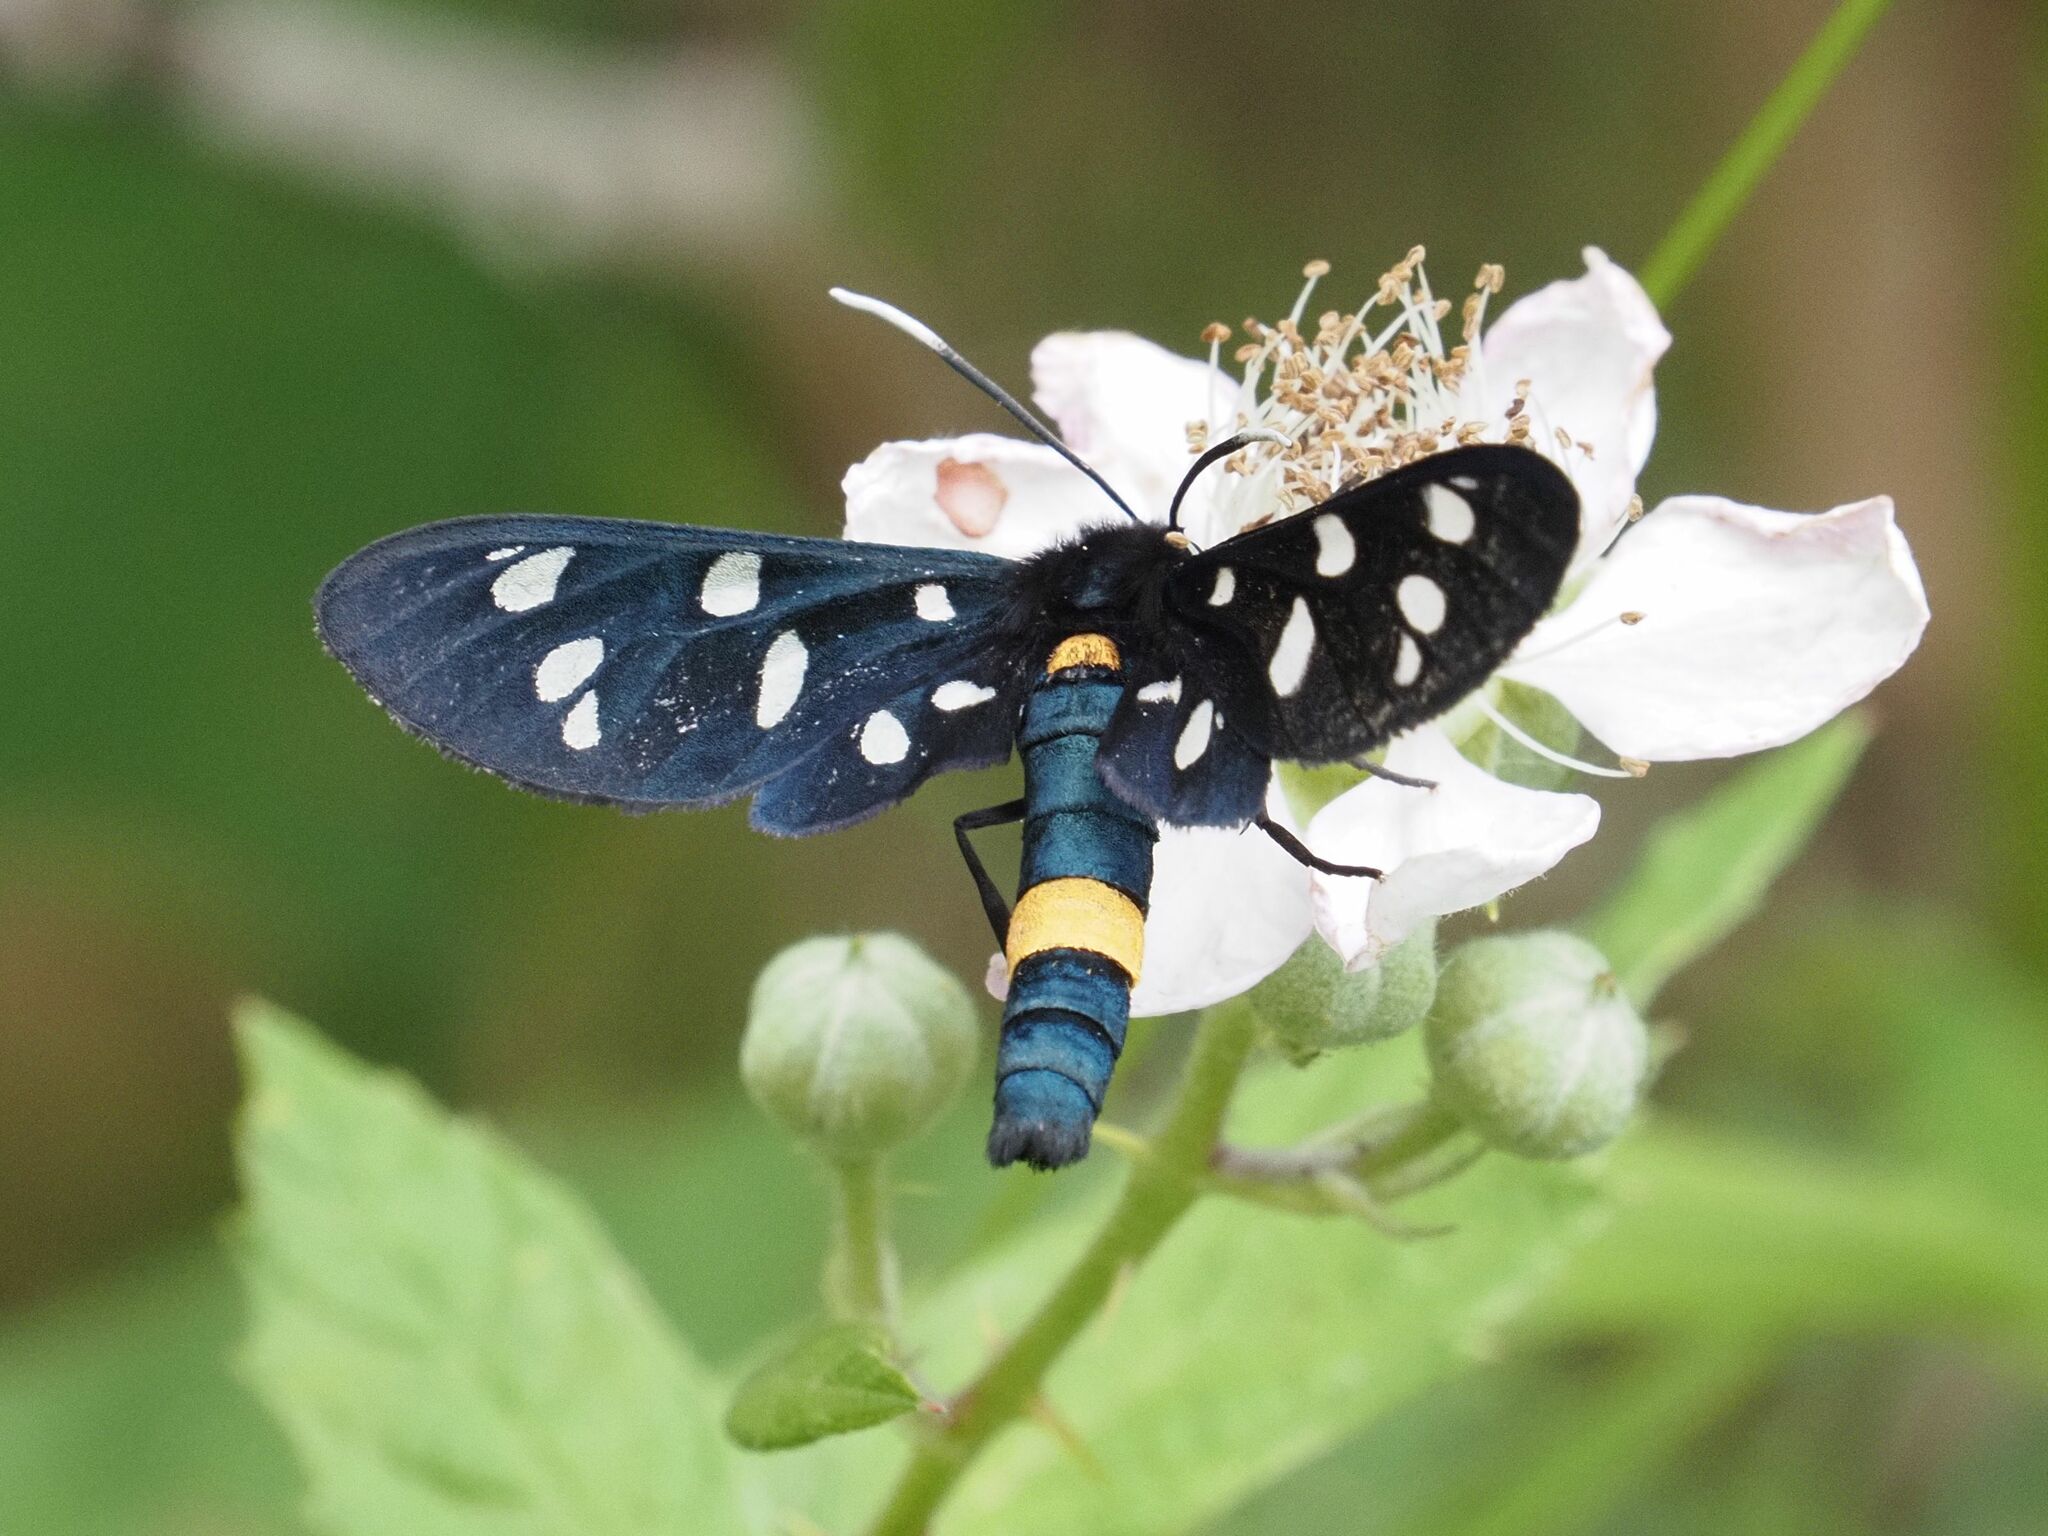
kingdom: Animalia
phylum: Arthropoda
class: Insecta
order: Lepidoptera
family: Erebidae
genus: Amata
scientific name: Amata phegea
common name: Nine-spotted
